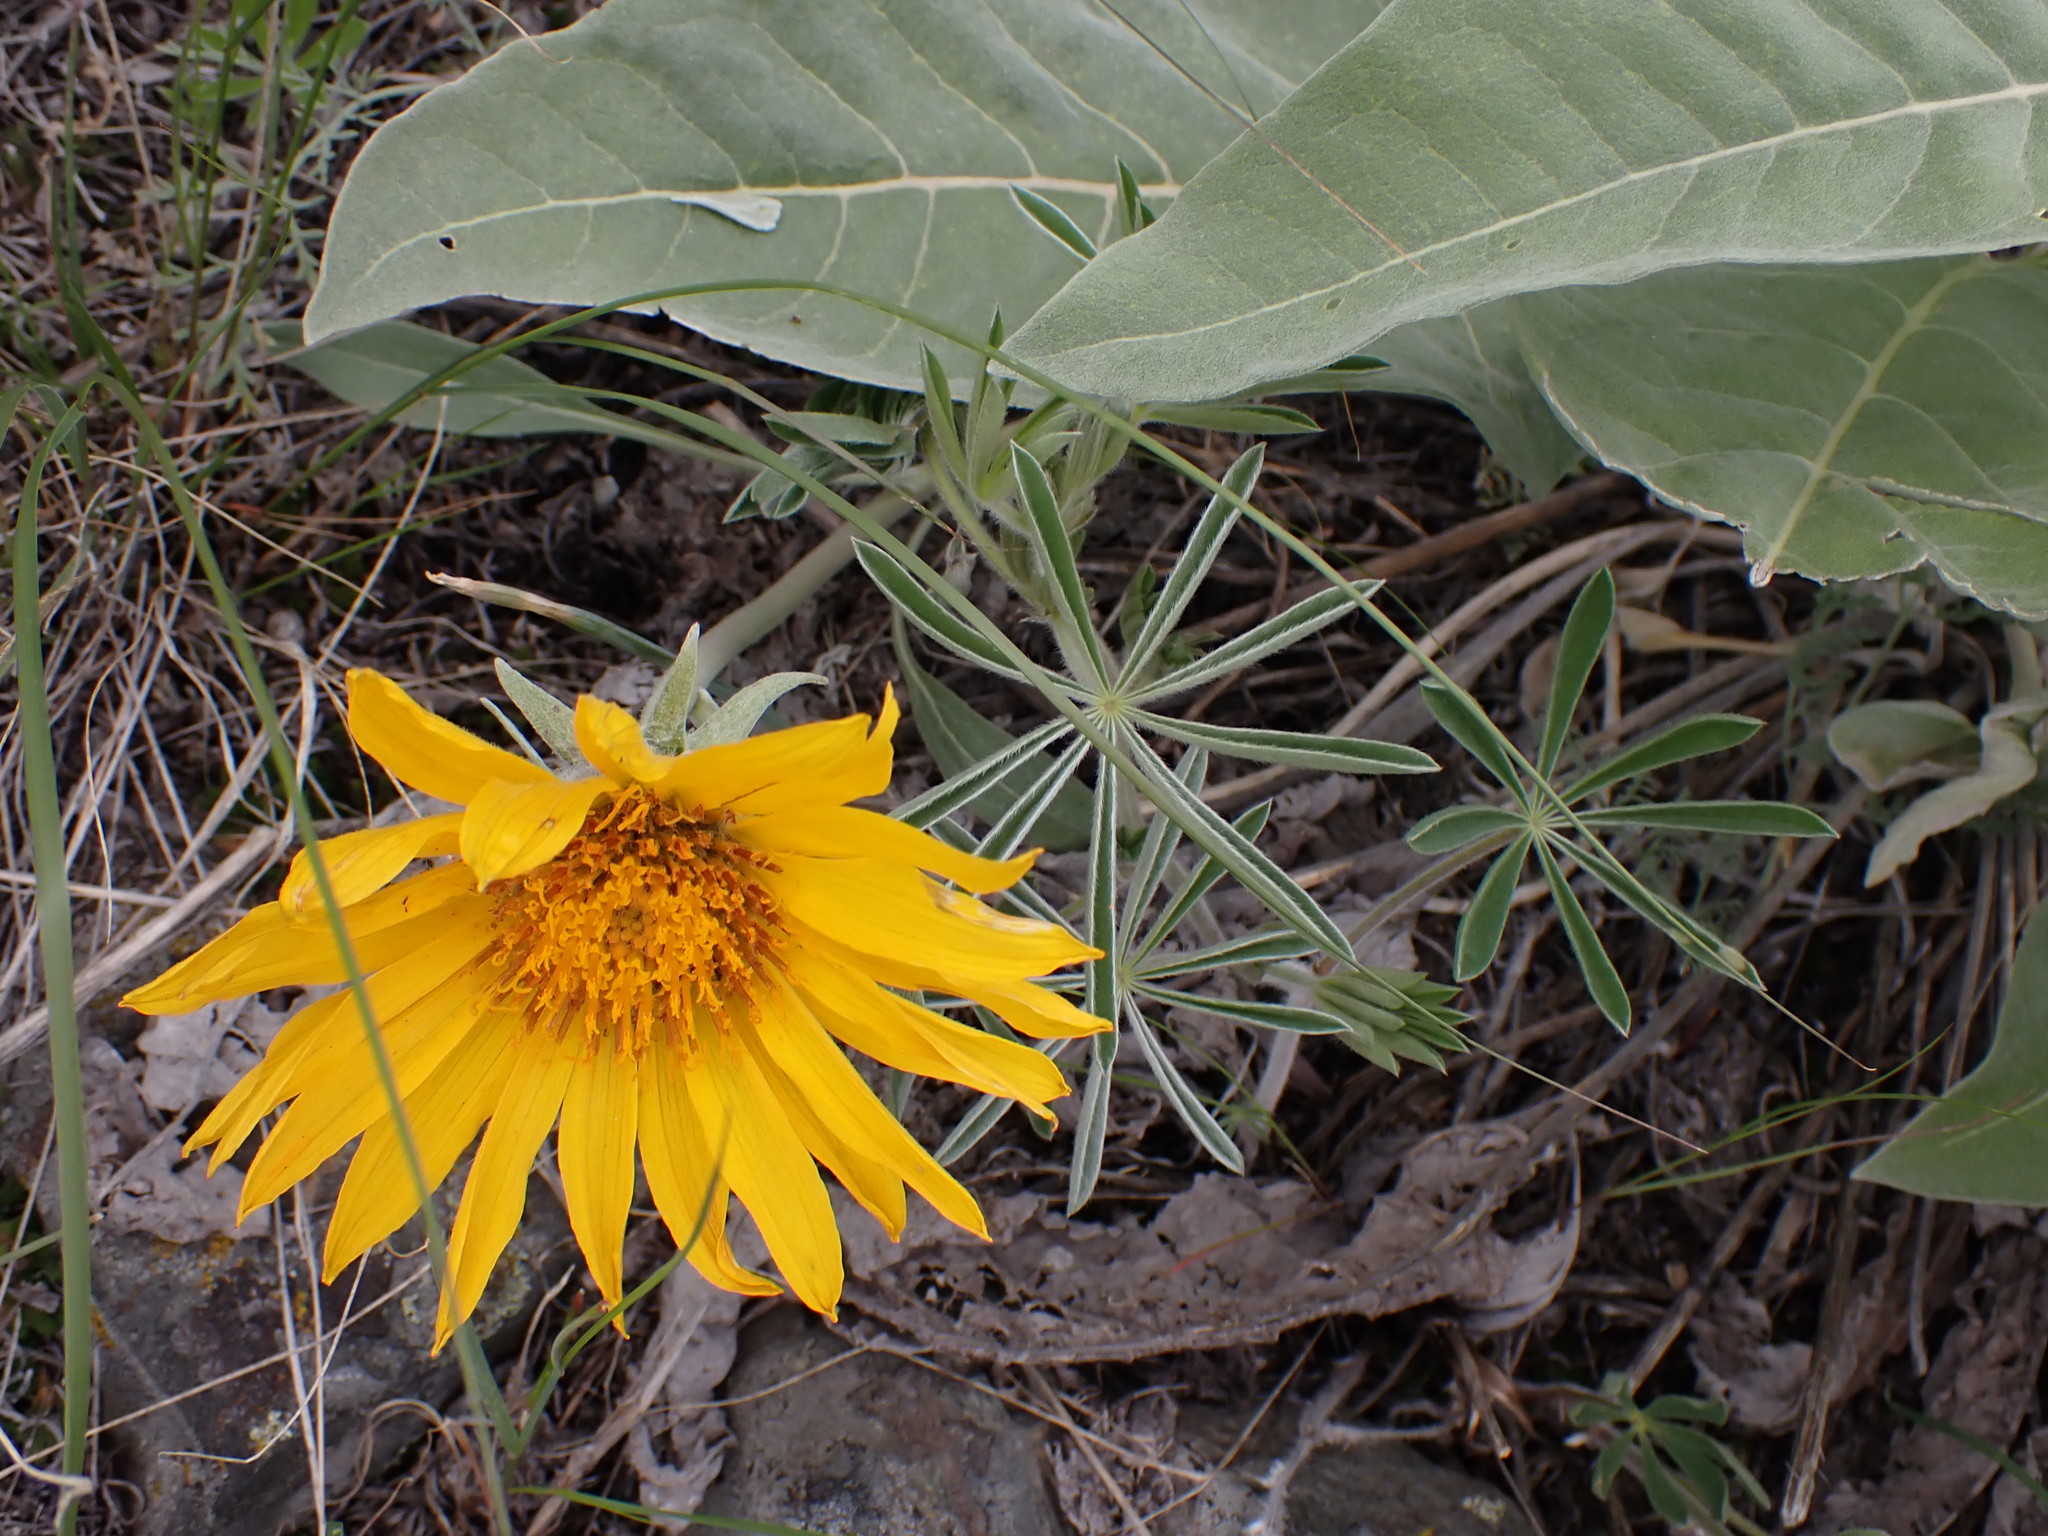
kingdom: Plantae
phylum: Tracheophyta
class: Magnoliopsida
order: Asterales
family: Asteraceae
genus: Wyethia
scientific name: Wyethia sagittata
